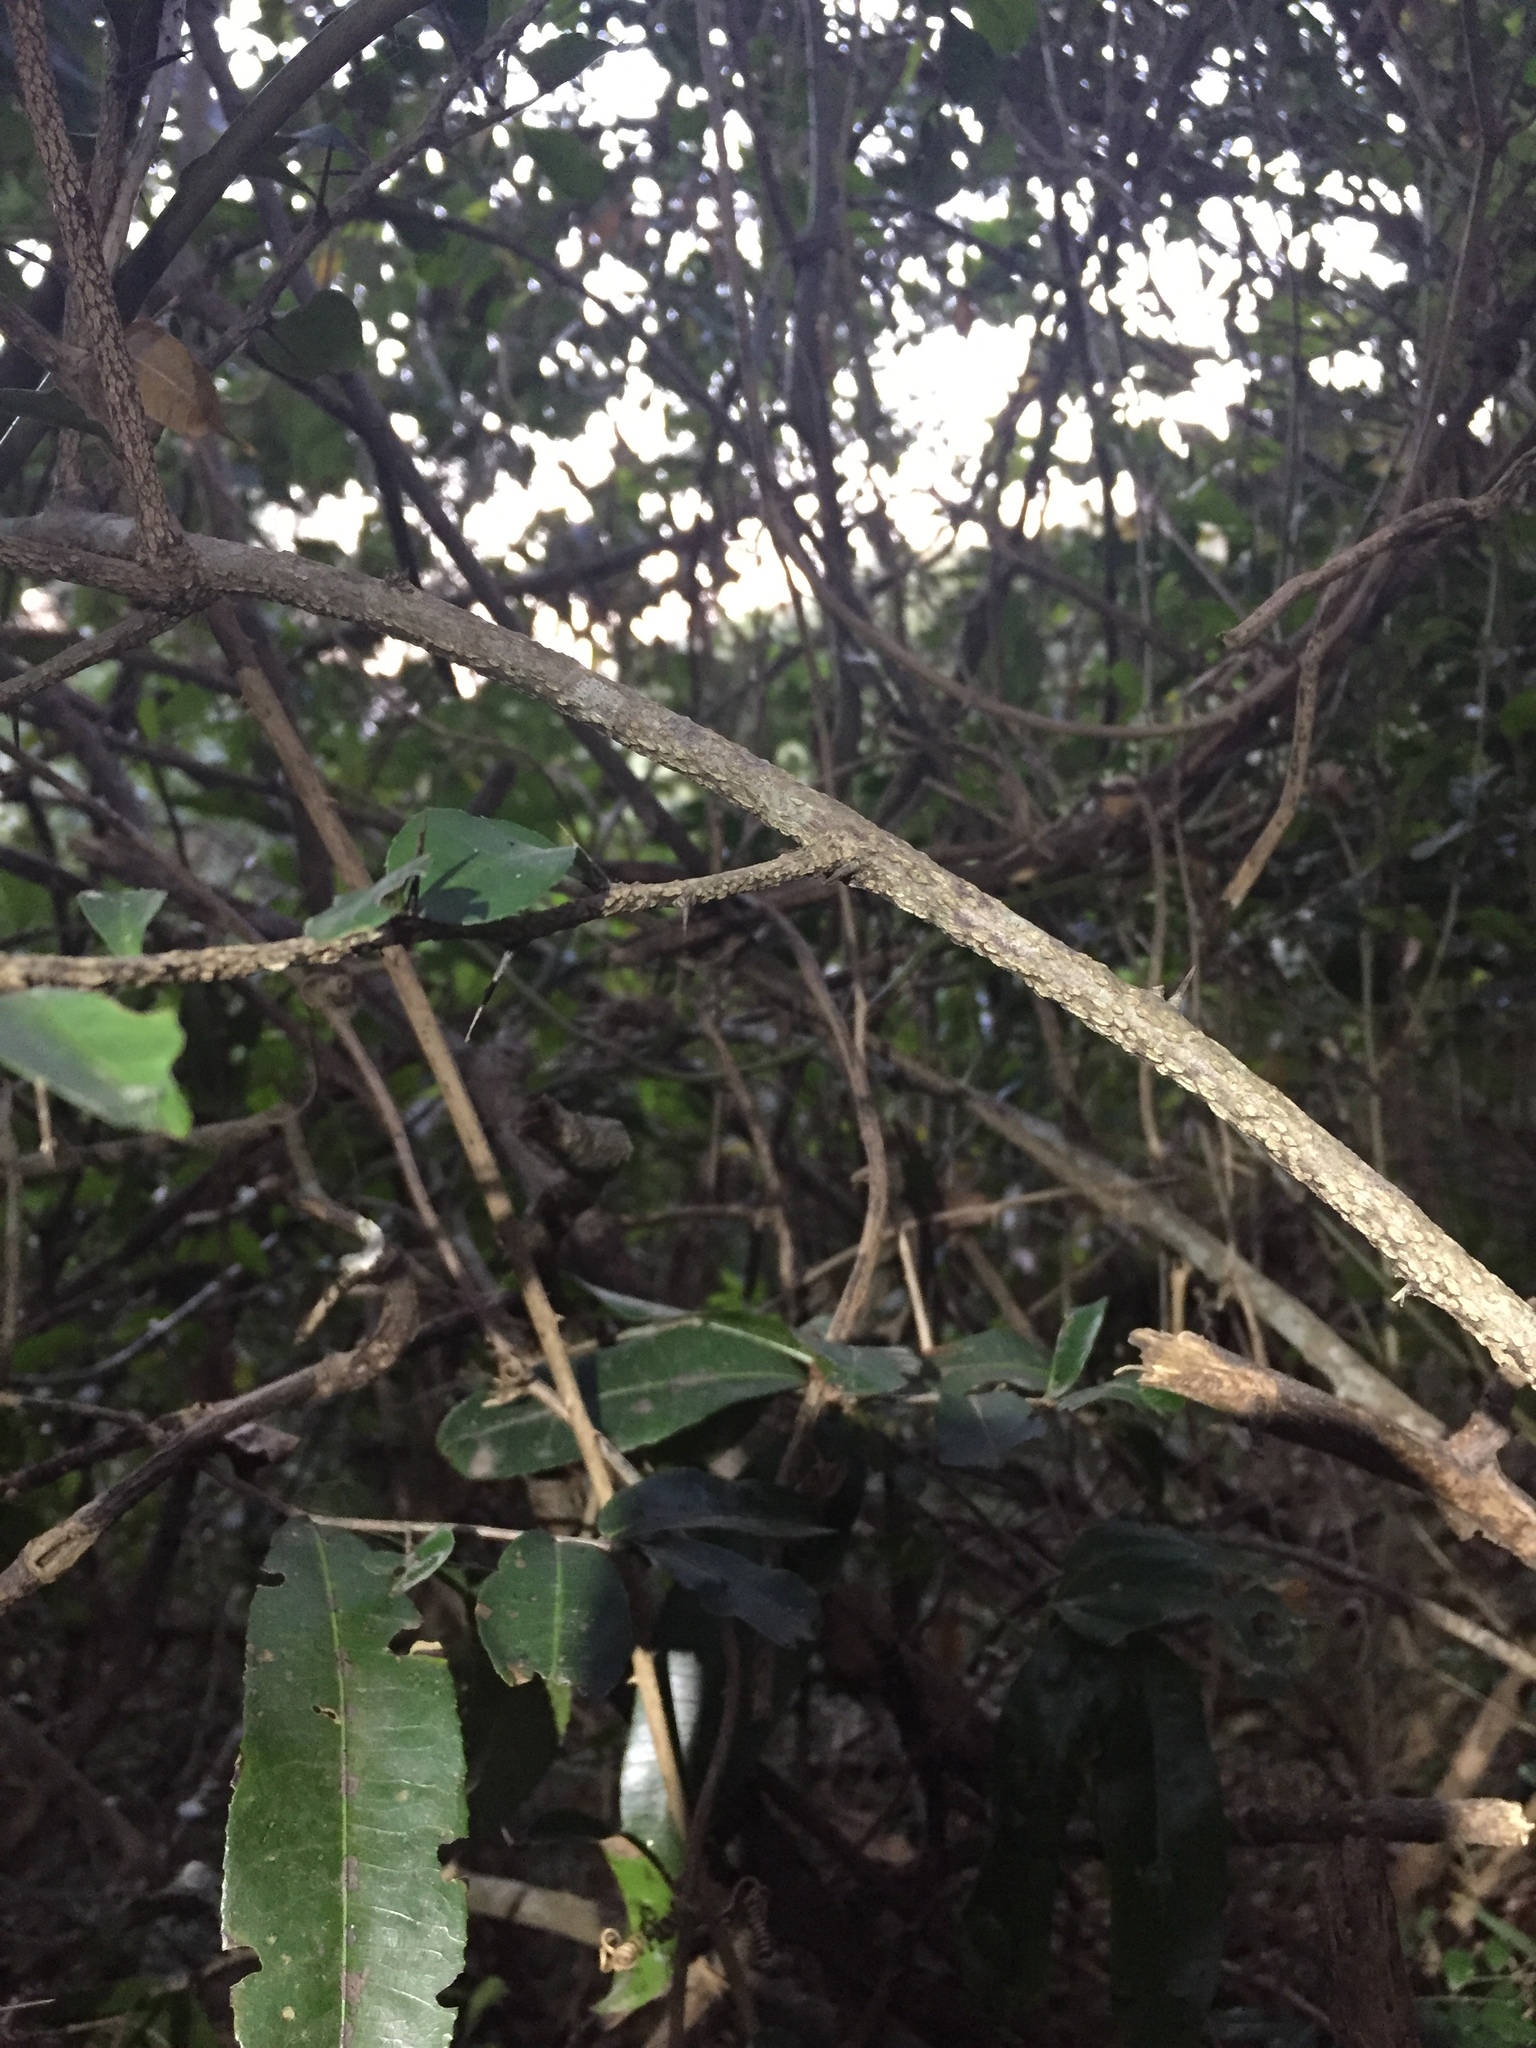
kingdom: Plantae
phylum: Tracheophyta
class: Magnoliopsida
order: Celastrales
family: Celastraceae
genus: Putterlickia
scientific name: Putterlickia verrucosa
